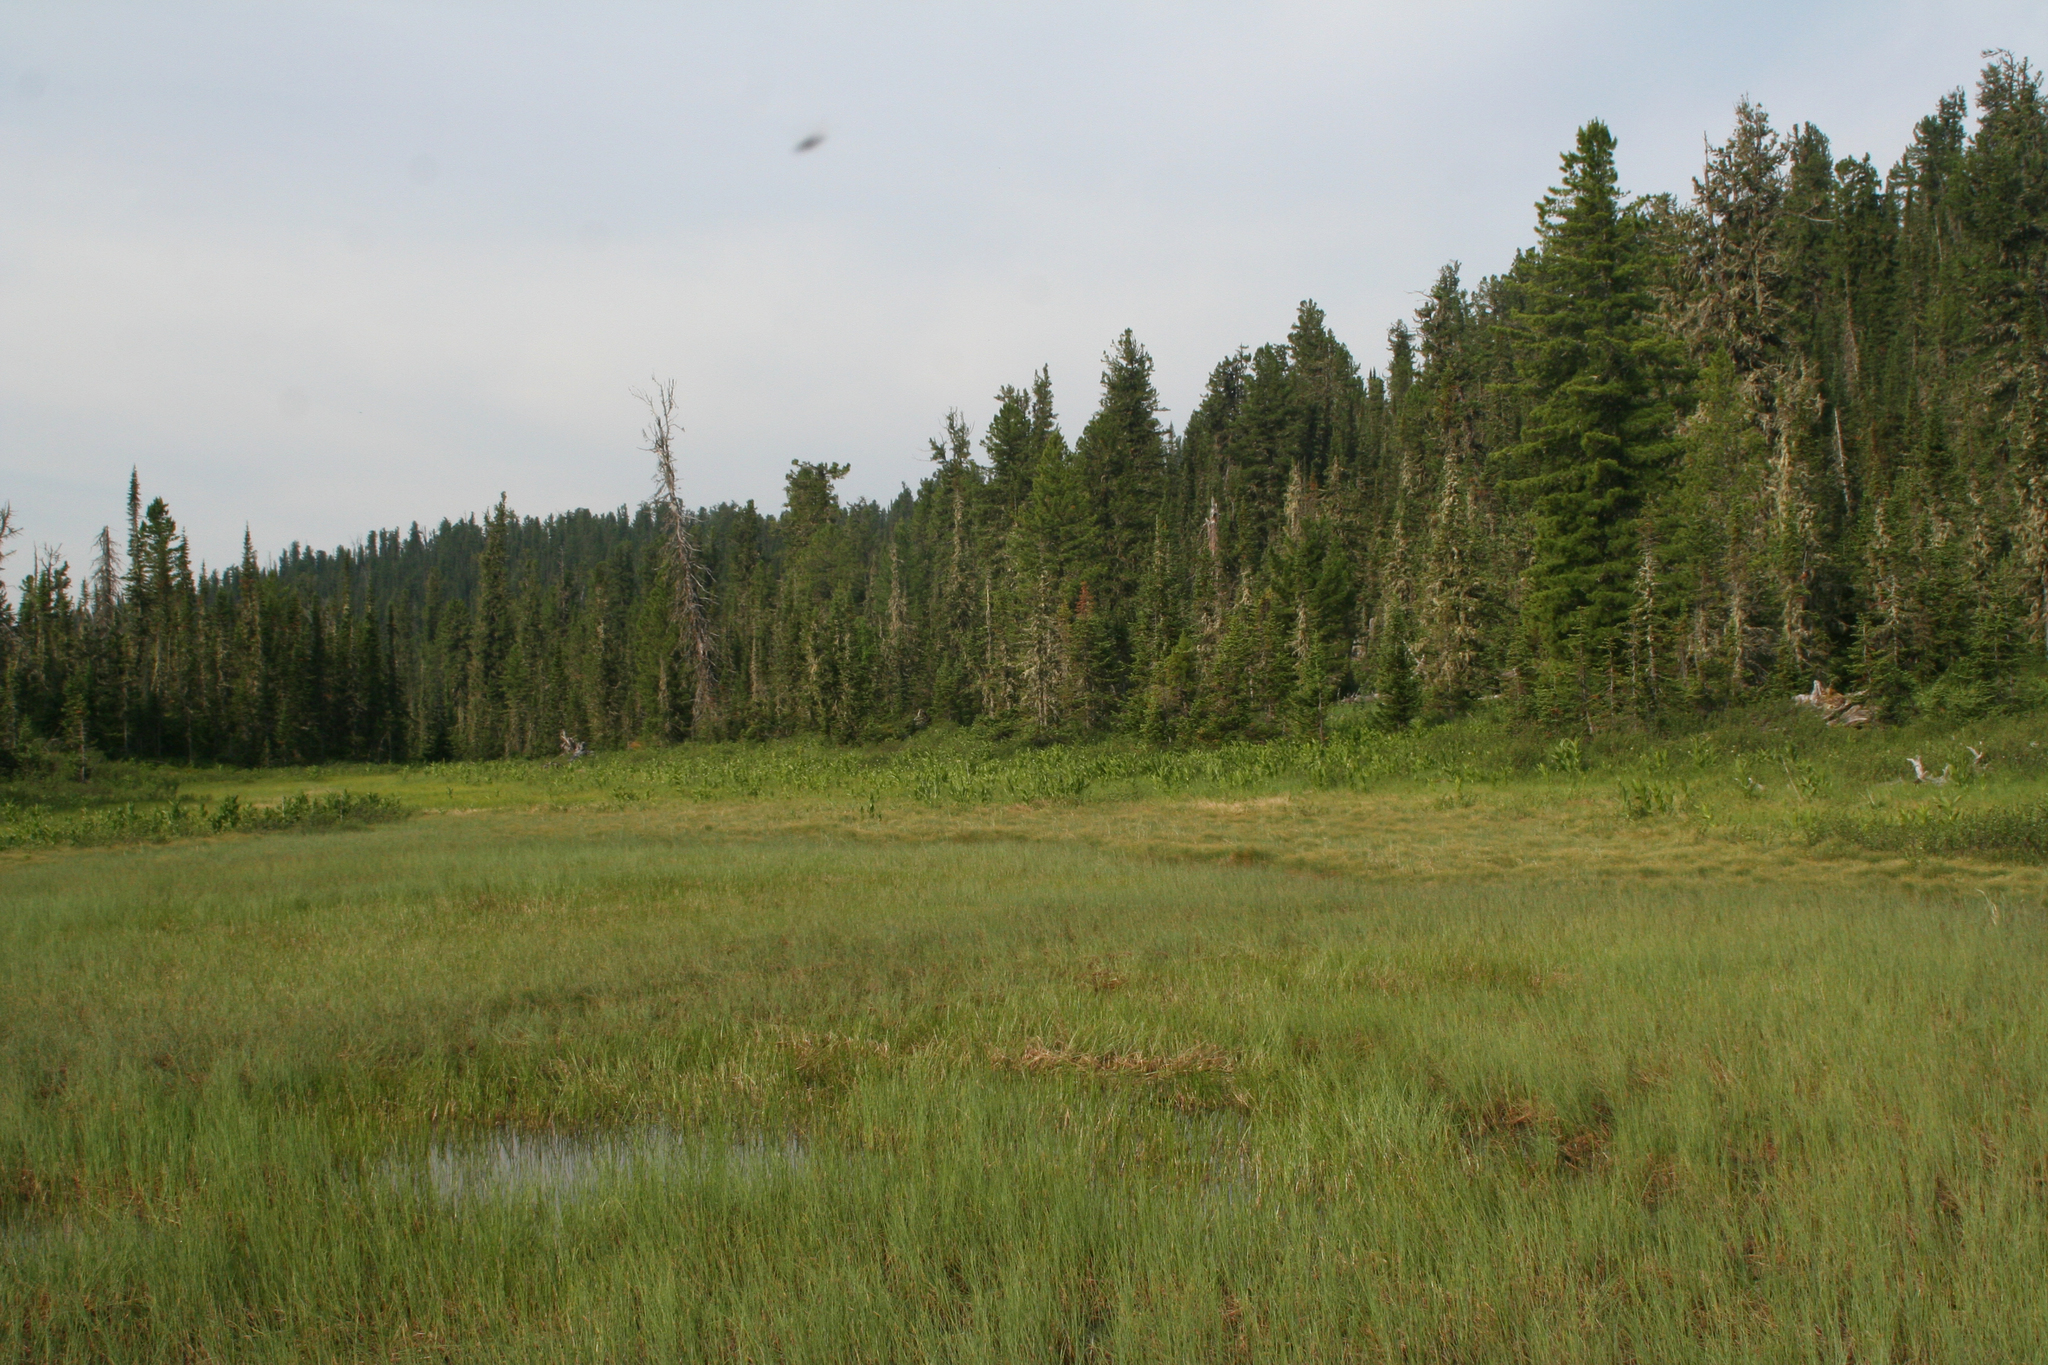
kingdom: Plantae
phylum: Tracheophyta
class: Pinopsida
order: Pinales
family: Pinaceae
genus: Pinus
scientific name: Pinus sibirica
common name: Siberian pine
